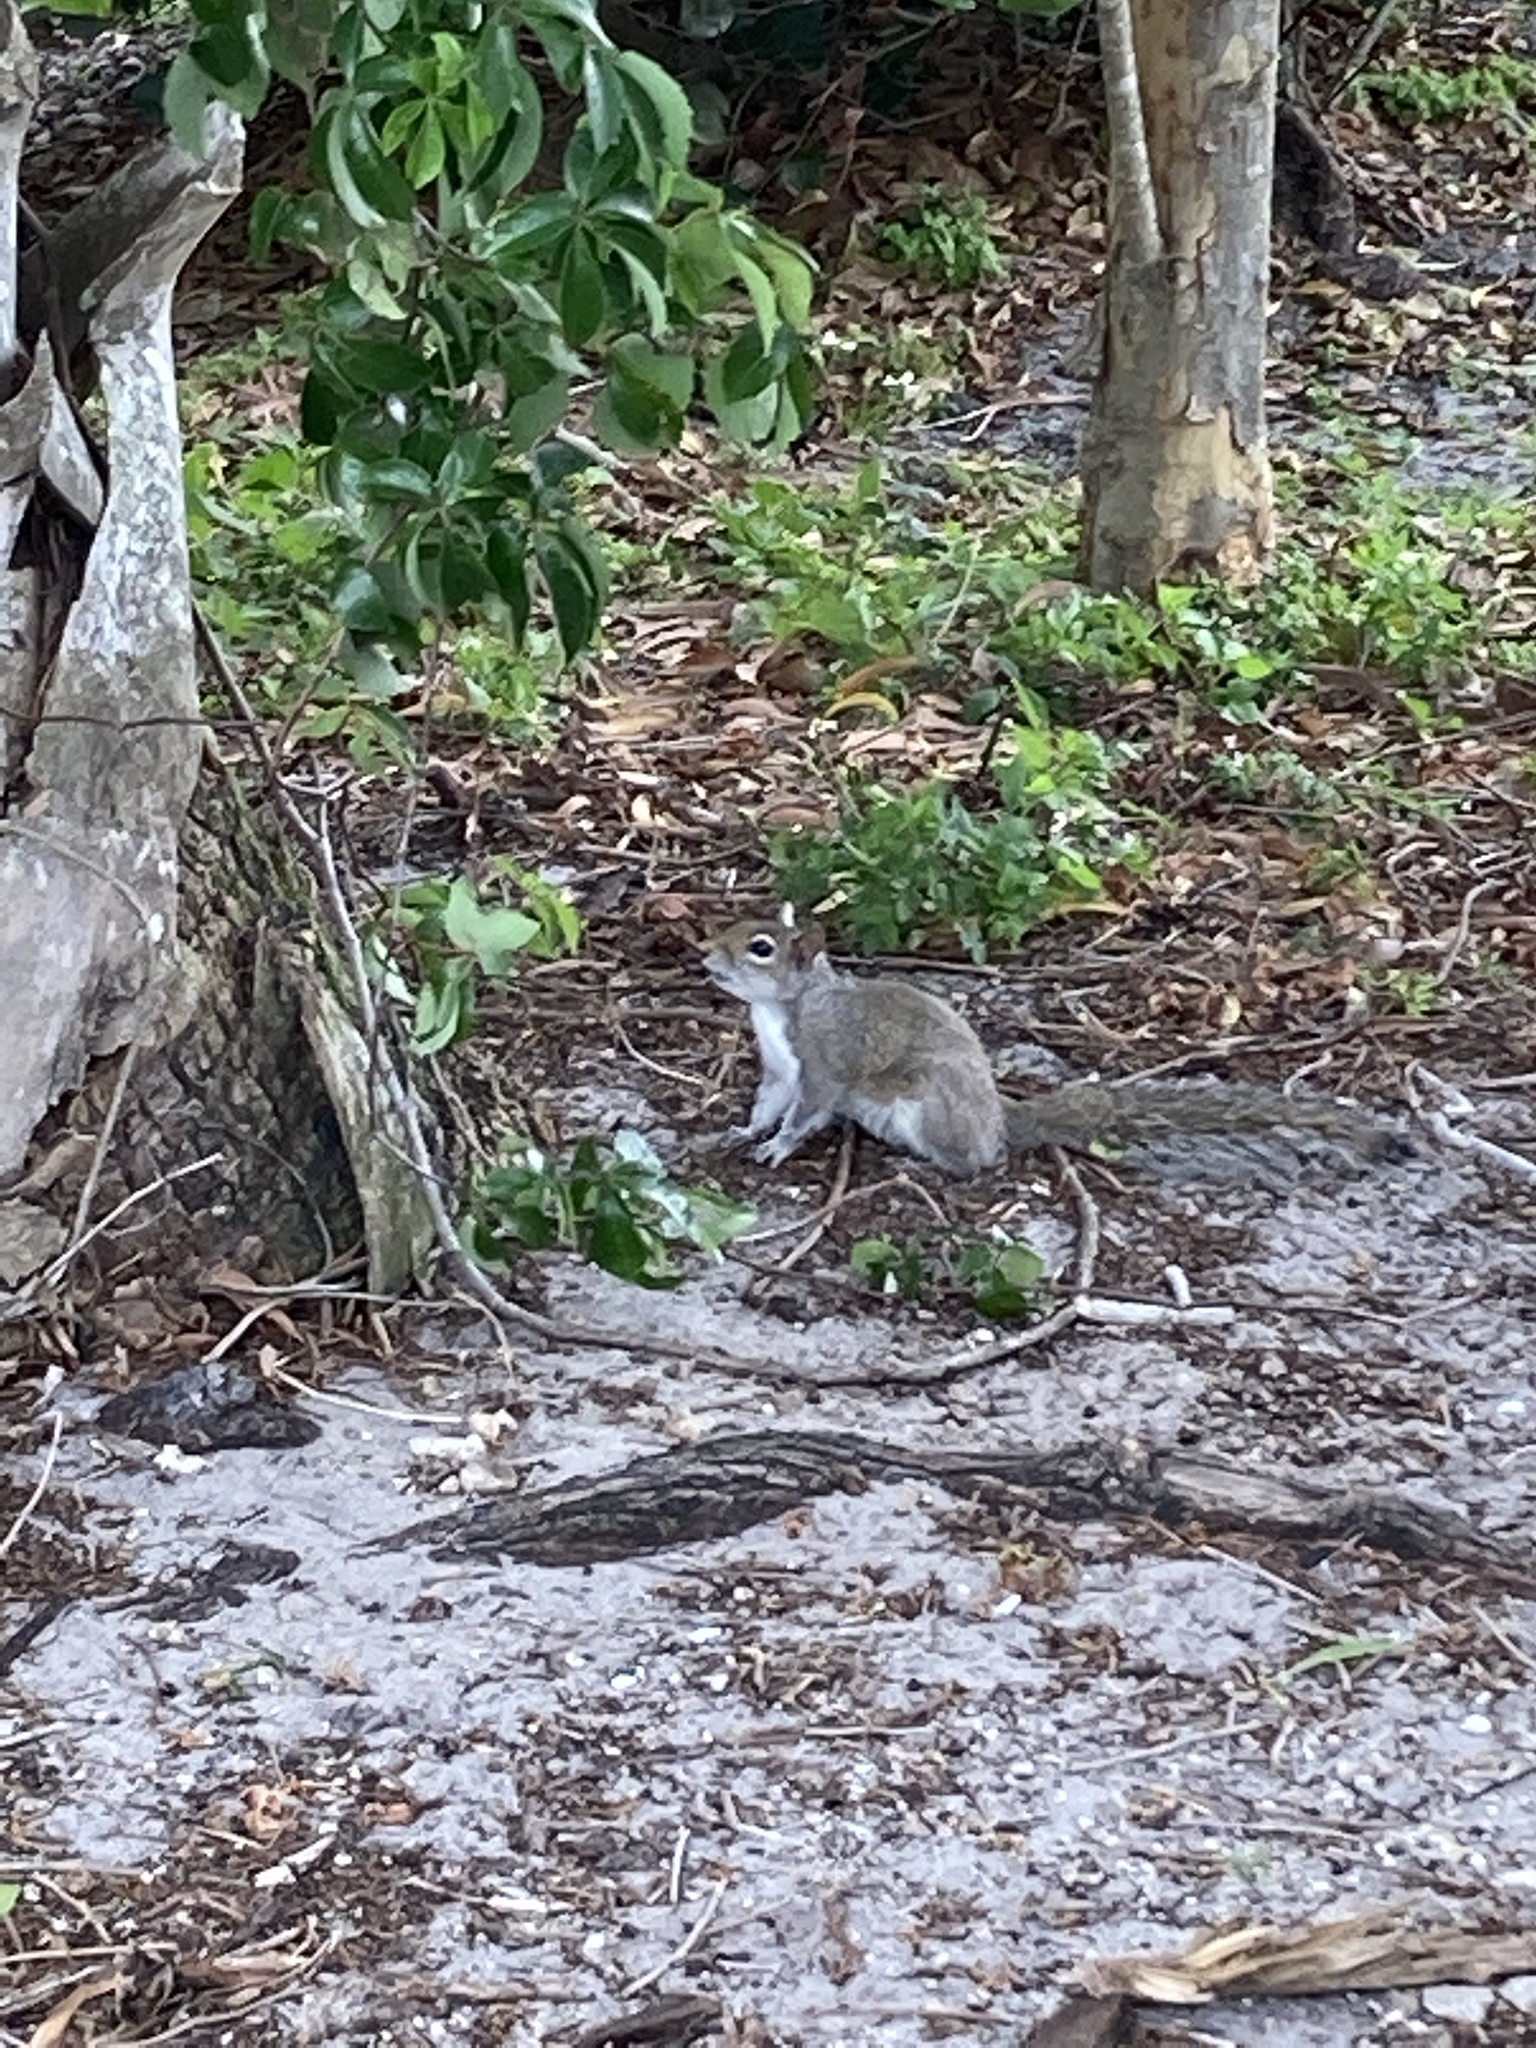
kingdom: Animalia
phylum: Chordata
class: Mammalia
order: Rodentia
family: Sciuridae
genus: Sciurus
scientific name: Sciurus carolinensis
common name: Eastern gray squirrel
